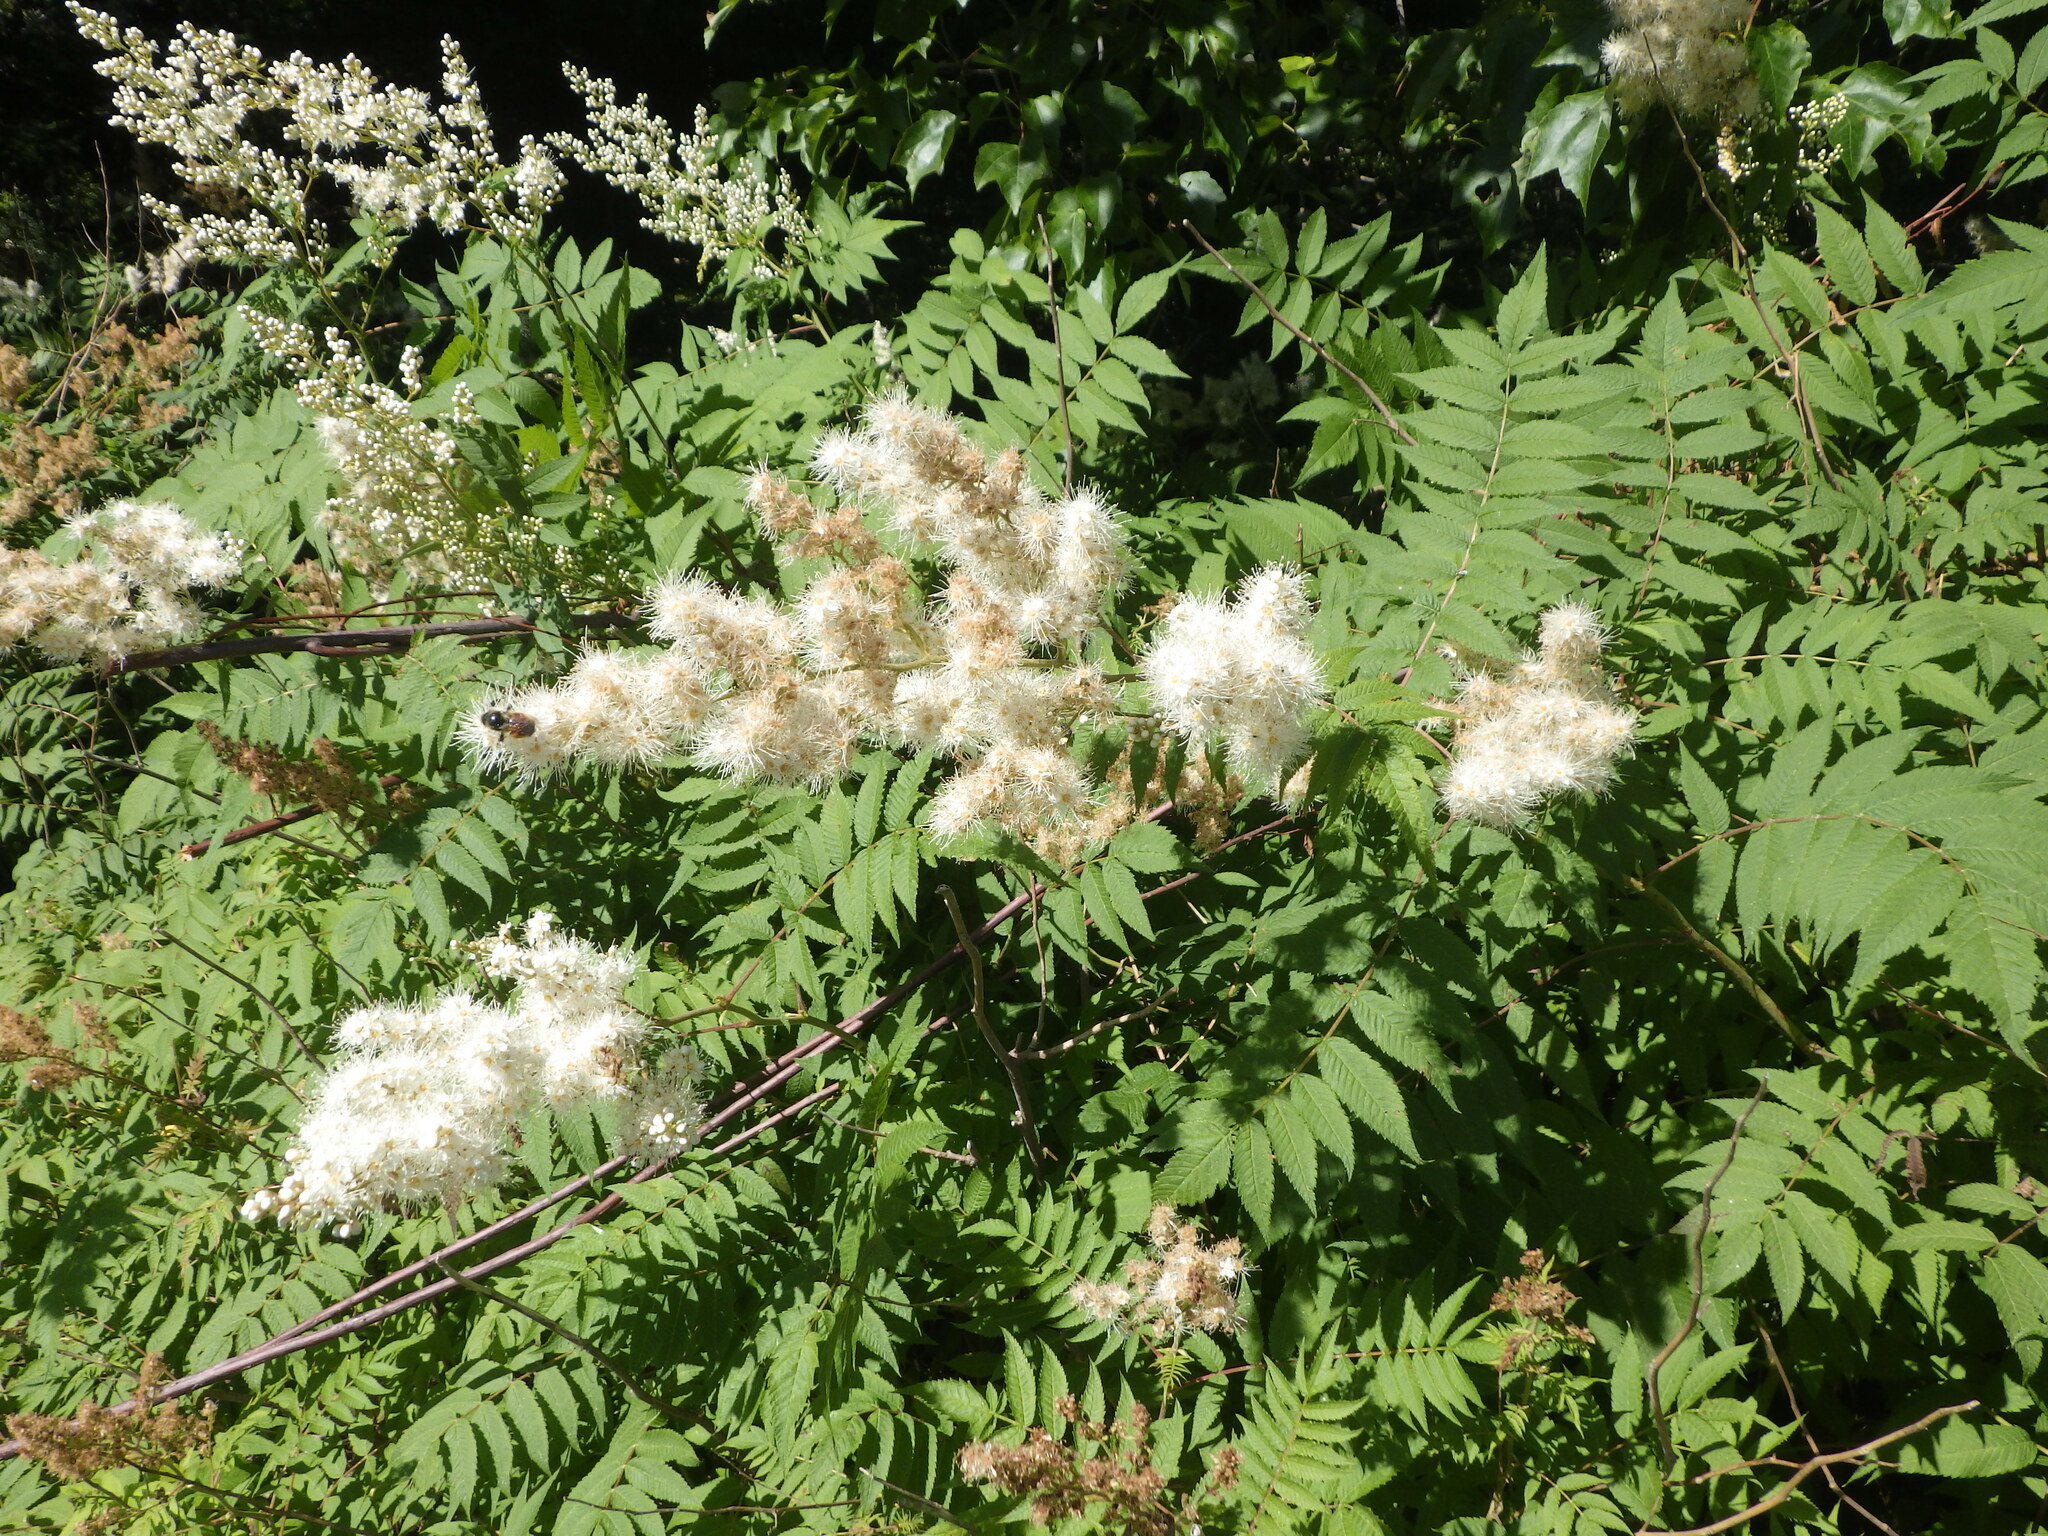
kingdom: Plantae
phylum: Tracheophyta
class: Magnoliopsida
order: Rosales
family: Rosaceae
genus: Sorbaria
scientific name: Sorbaria sorbifolia
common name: False spiraea
